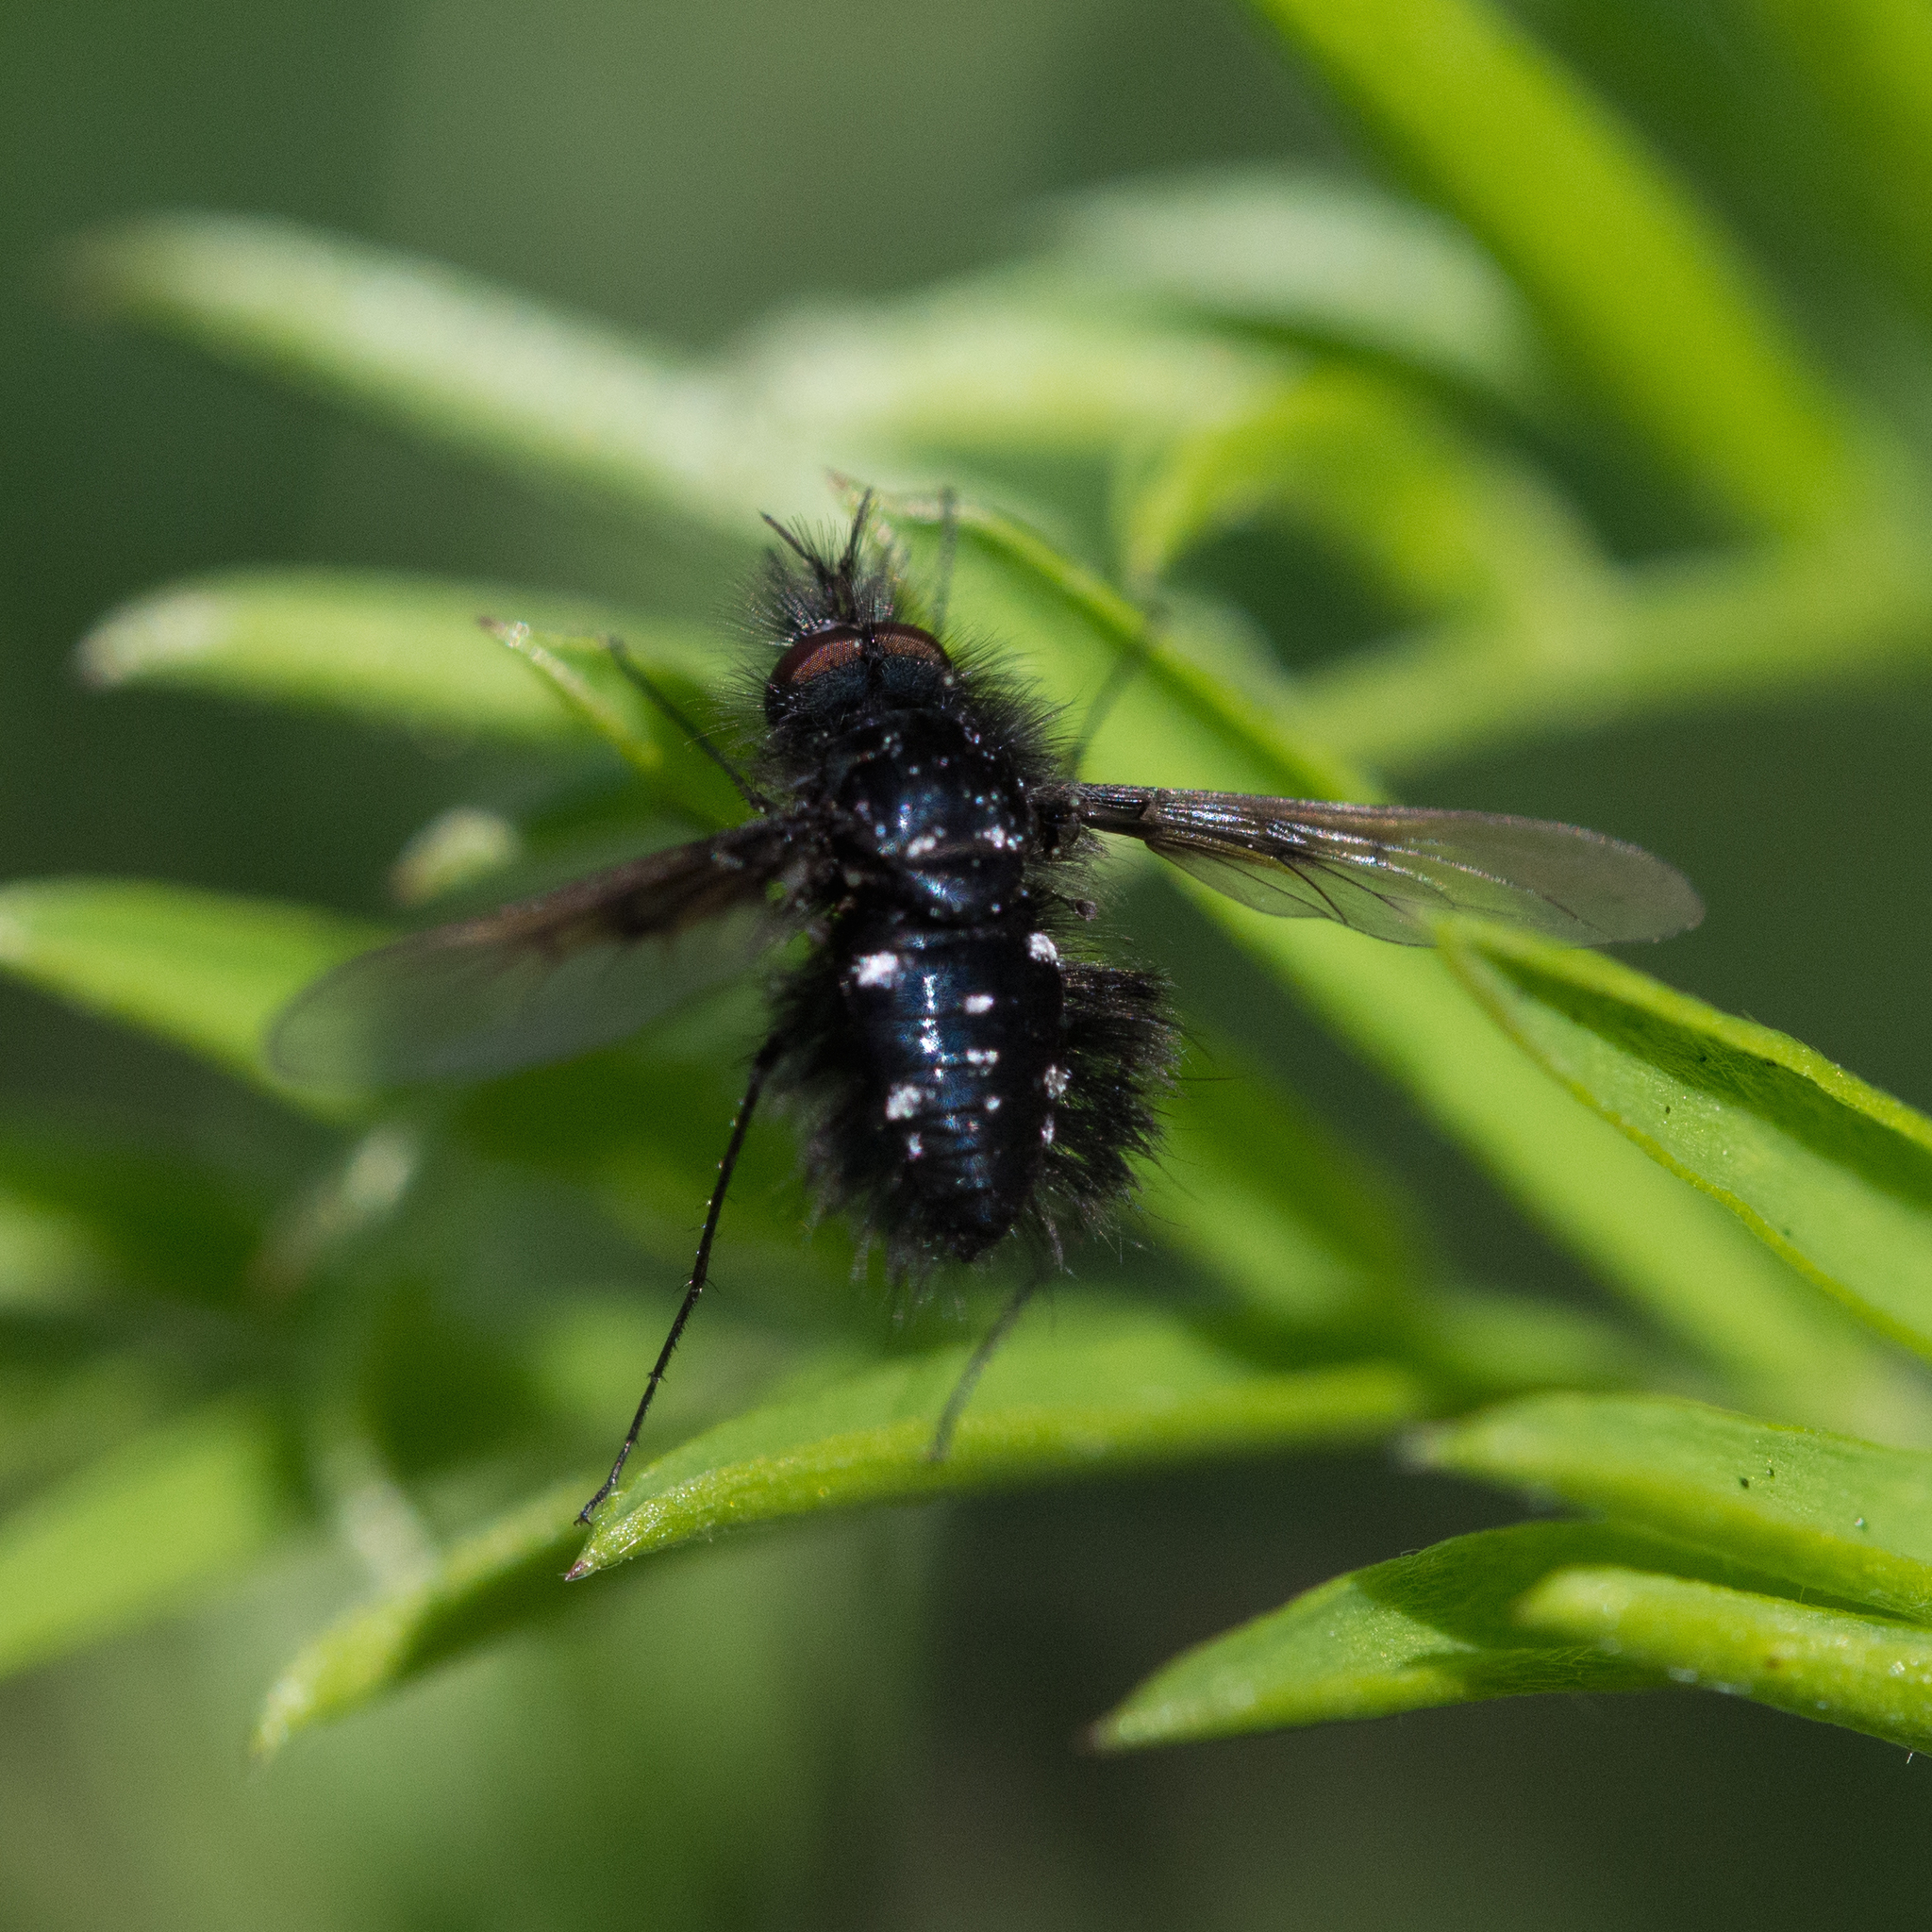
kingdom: Animalia
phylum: Arthropoda
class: Insecta
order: Diptera
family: Bombyliidae
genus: Bombylella
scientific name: Bombylella atra
